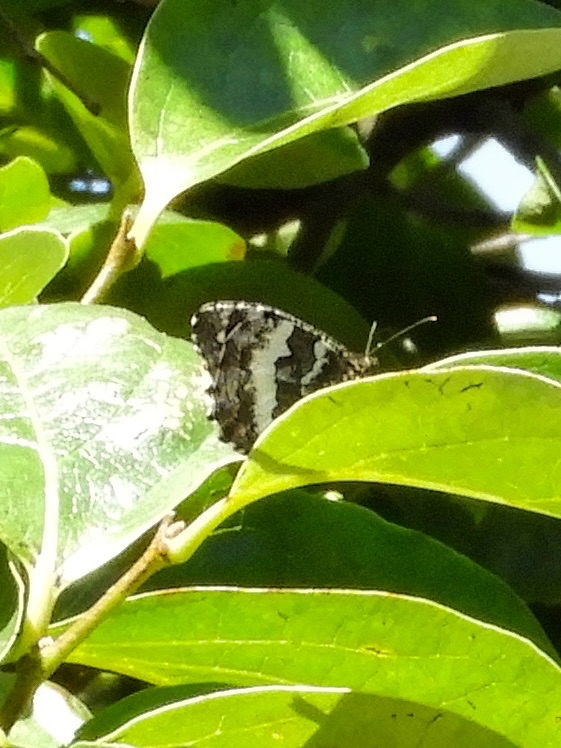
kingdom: Animalia
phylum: Arthropoda
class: Insecta
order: Lepidoptera
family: Lycaenidae
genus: Loweia
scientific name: Loweia tityrus
